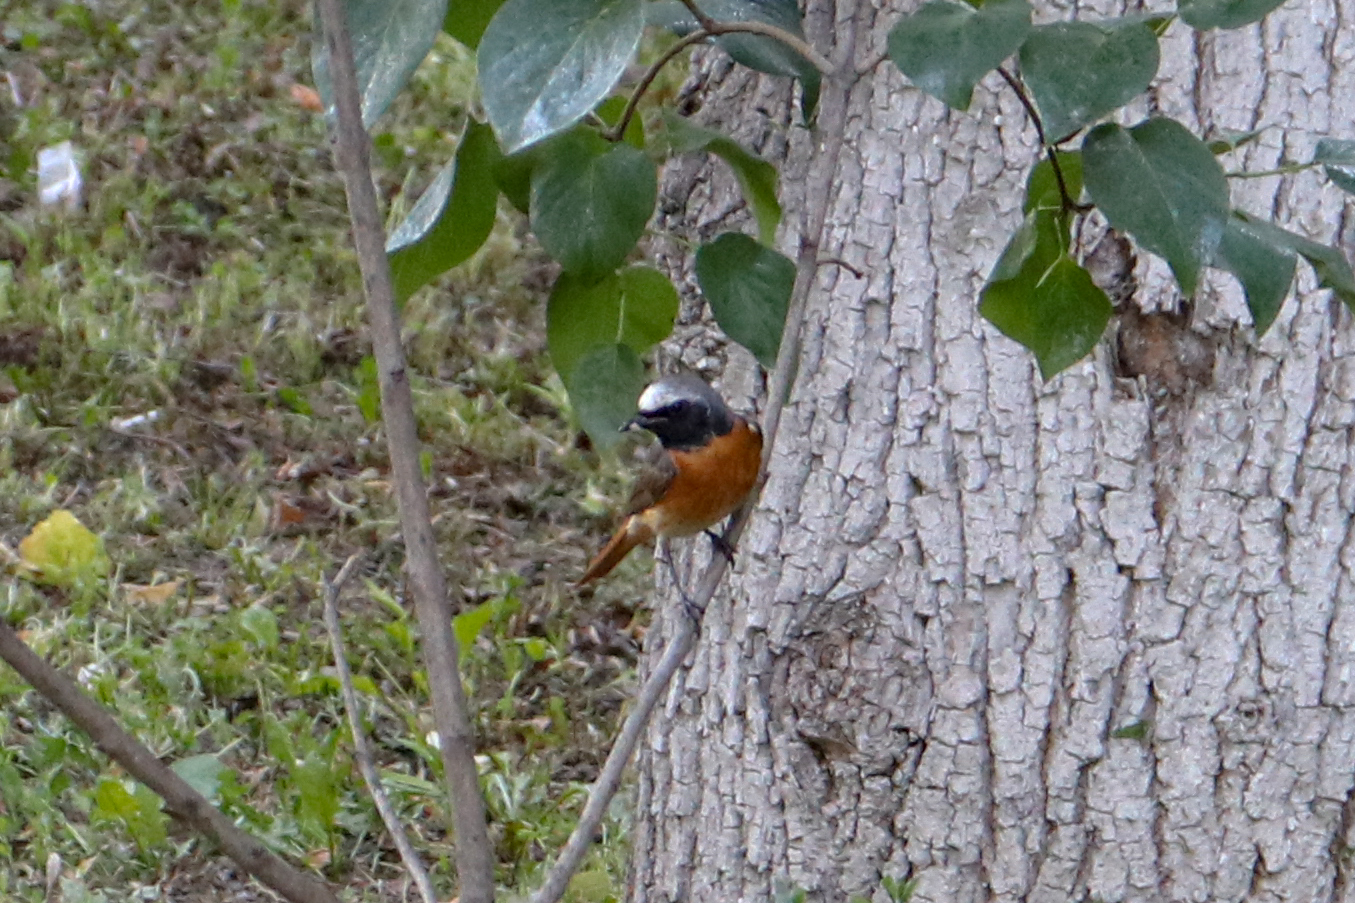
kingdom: Animalia
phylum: Chordata
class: Aves
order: Passeriformes
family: Muscicapidae
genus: Phoenicurus
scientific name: Phoenicurus phoenicurus
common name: Common redstart
